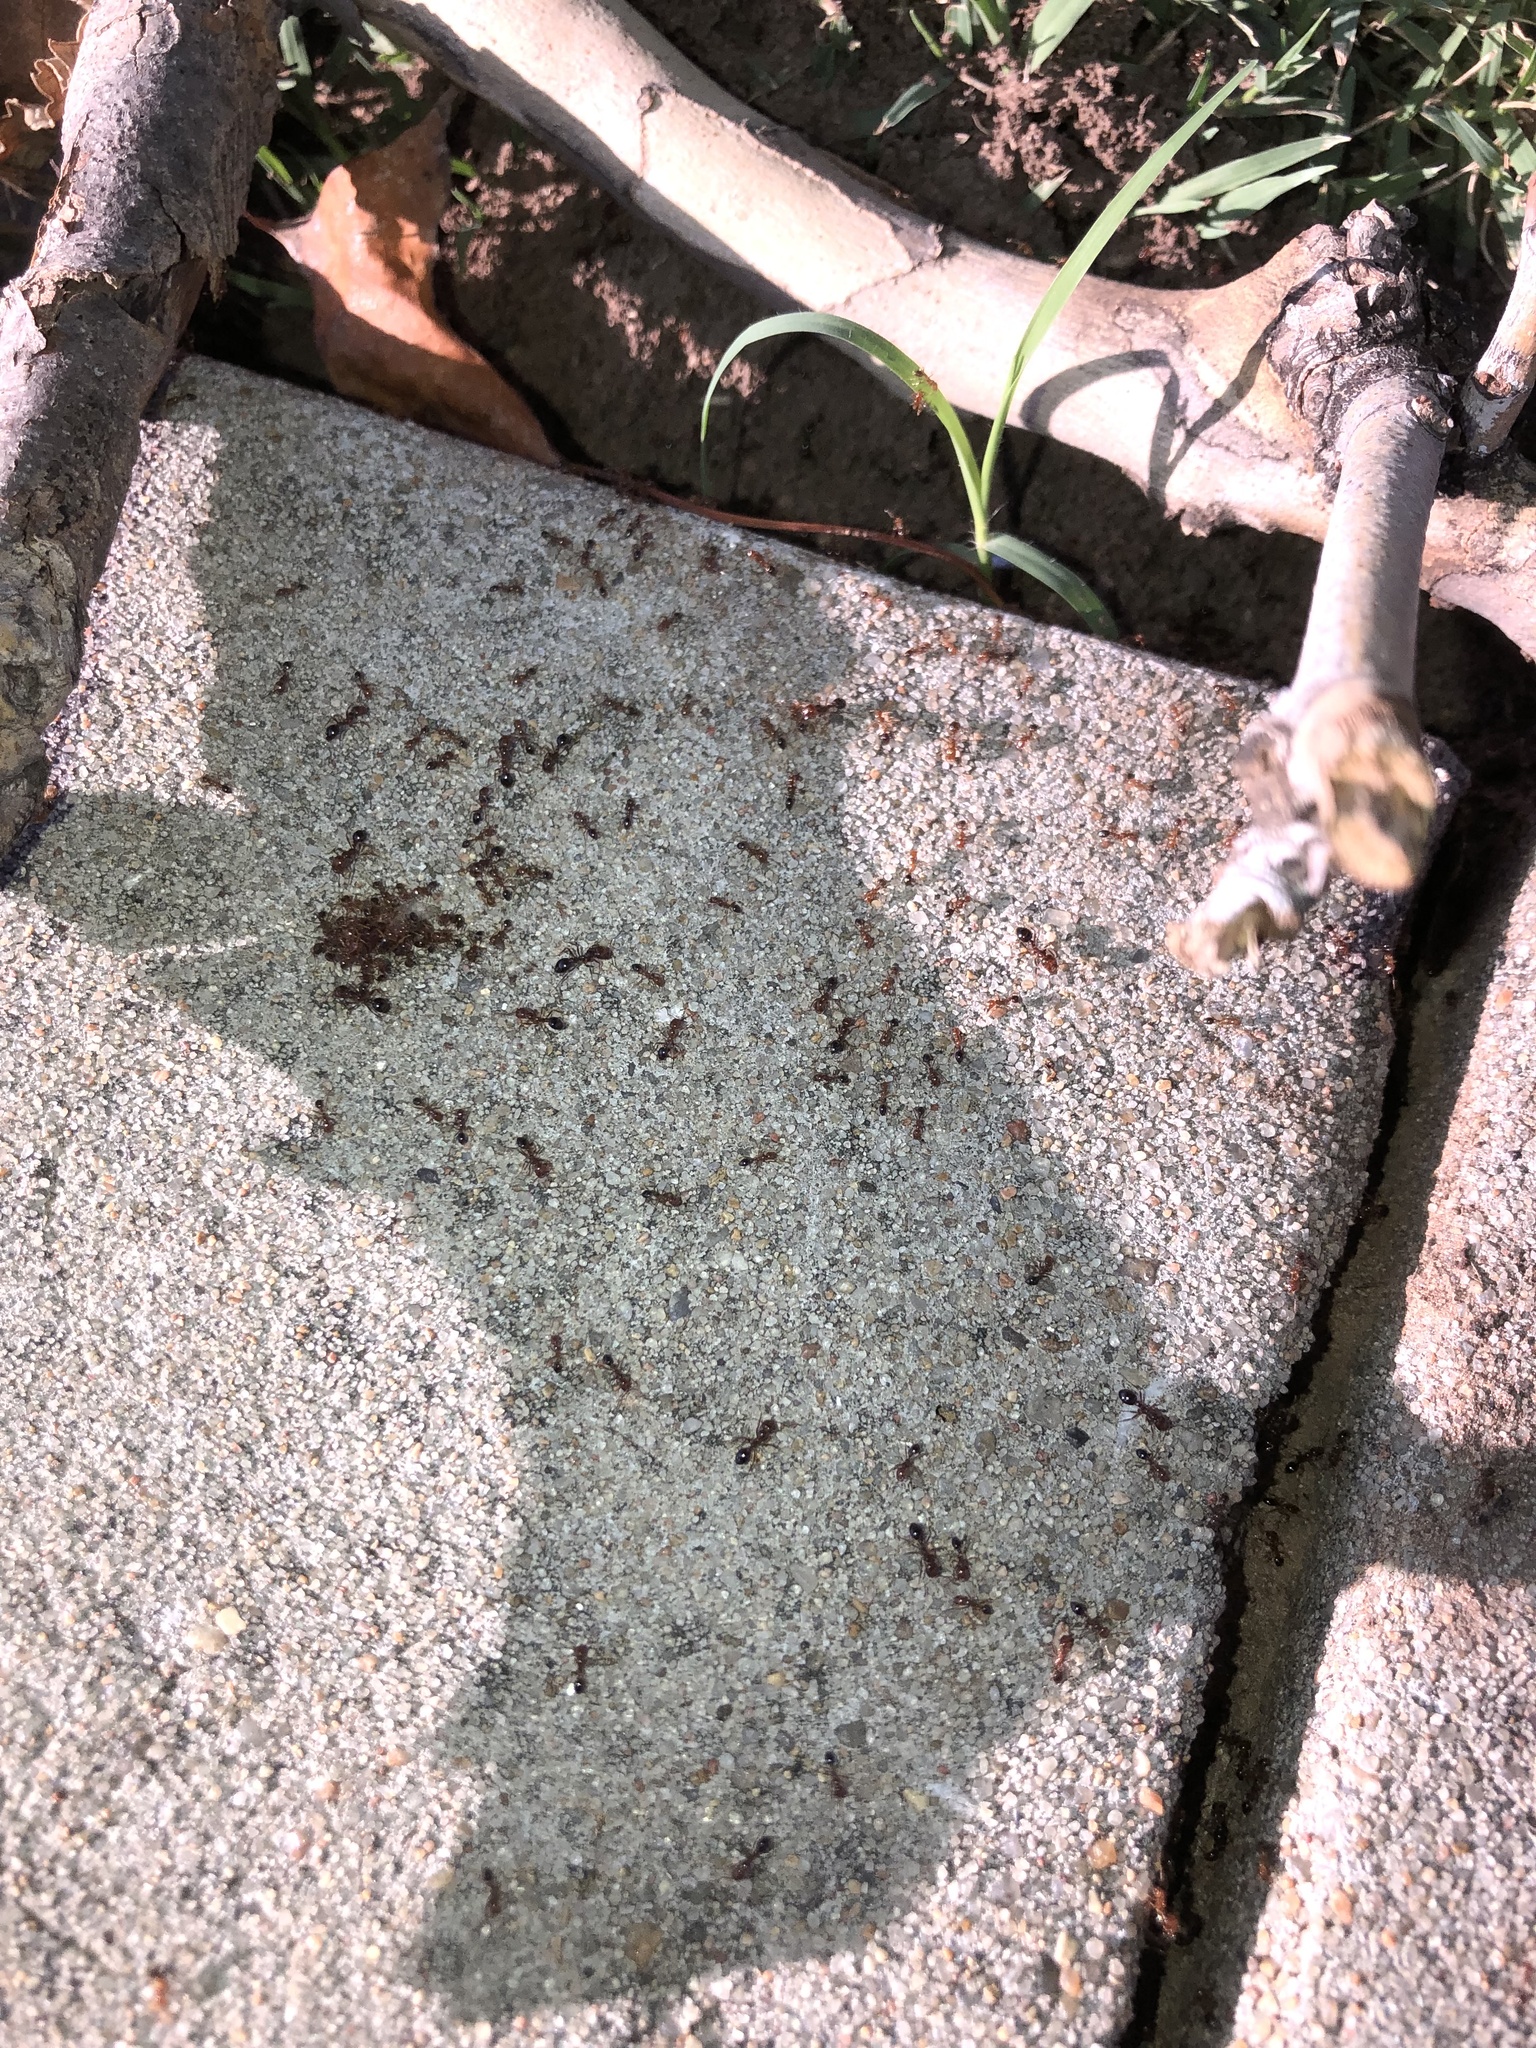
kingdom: Animalia
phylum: Arthropoda
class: Insecta
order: Hymenoptera
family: Formicidae
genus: Solenopsis
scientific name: Solenopsis invicta
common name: Red imported fire ant
